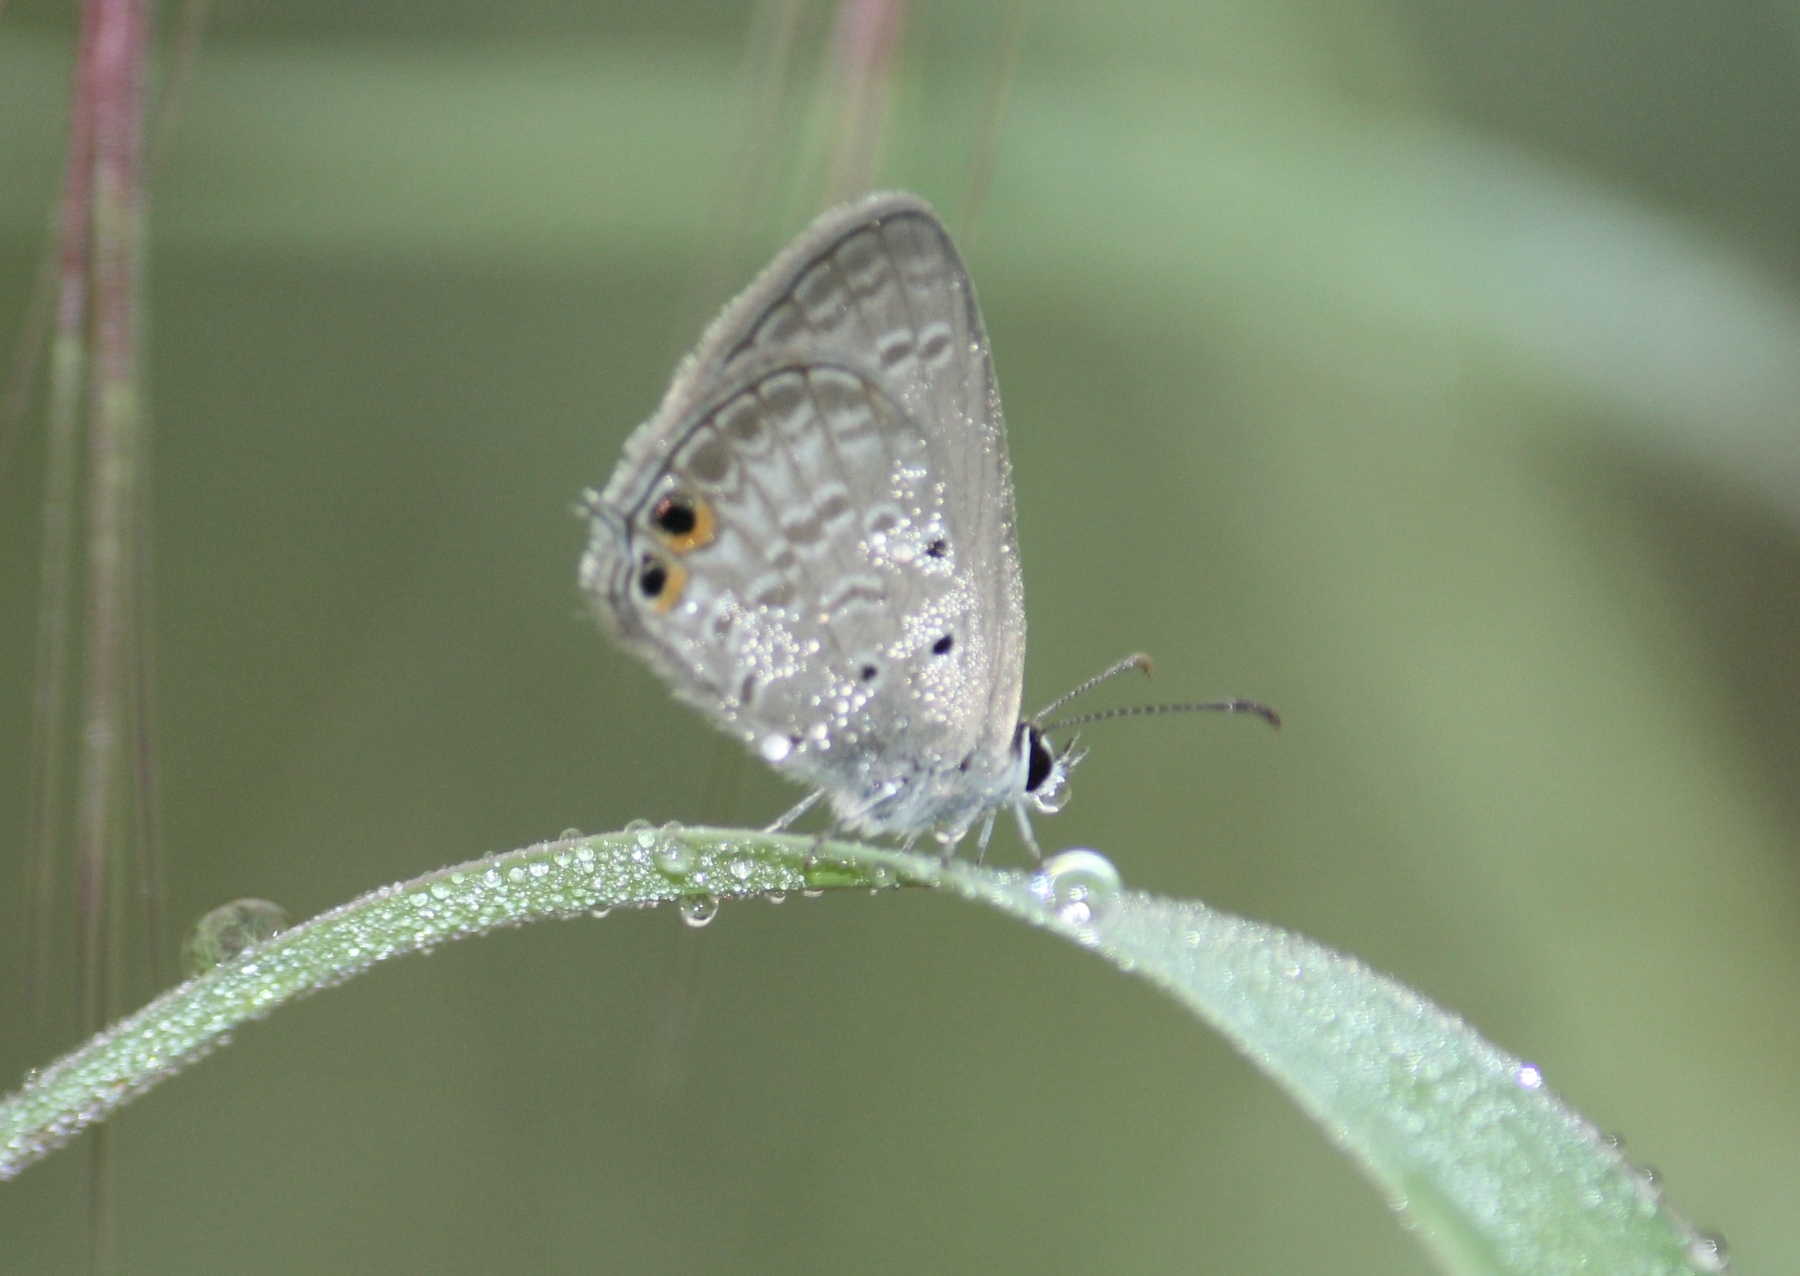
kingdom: Animalia
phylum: Arthropoda
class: Insecta
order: Lepidoptera
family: Lycaenidae
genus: Euchrysops
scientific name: Euchrysops cnejus
